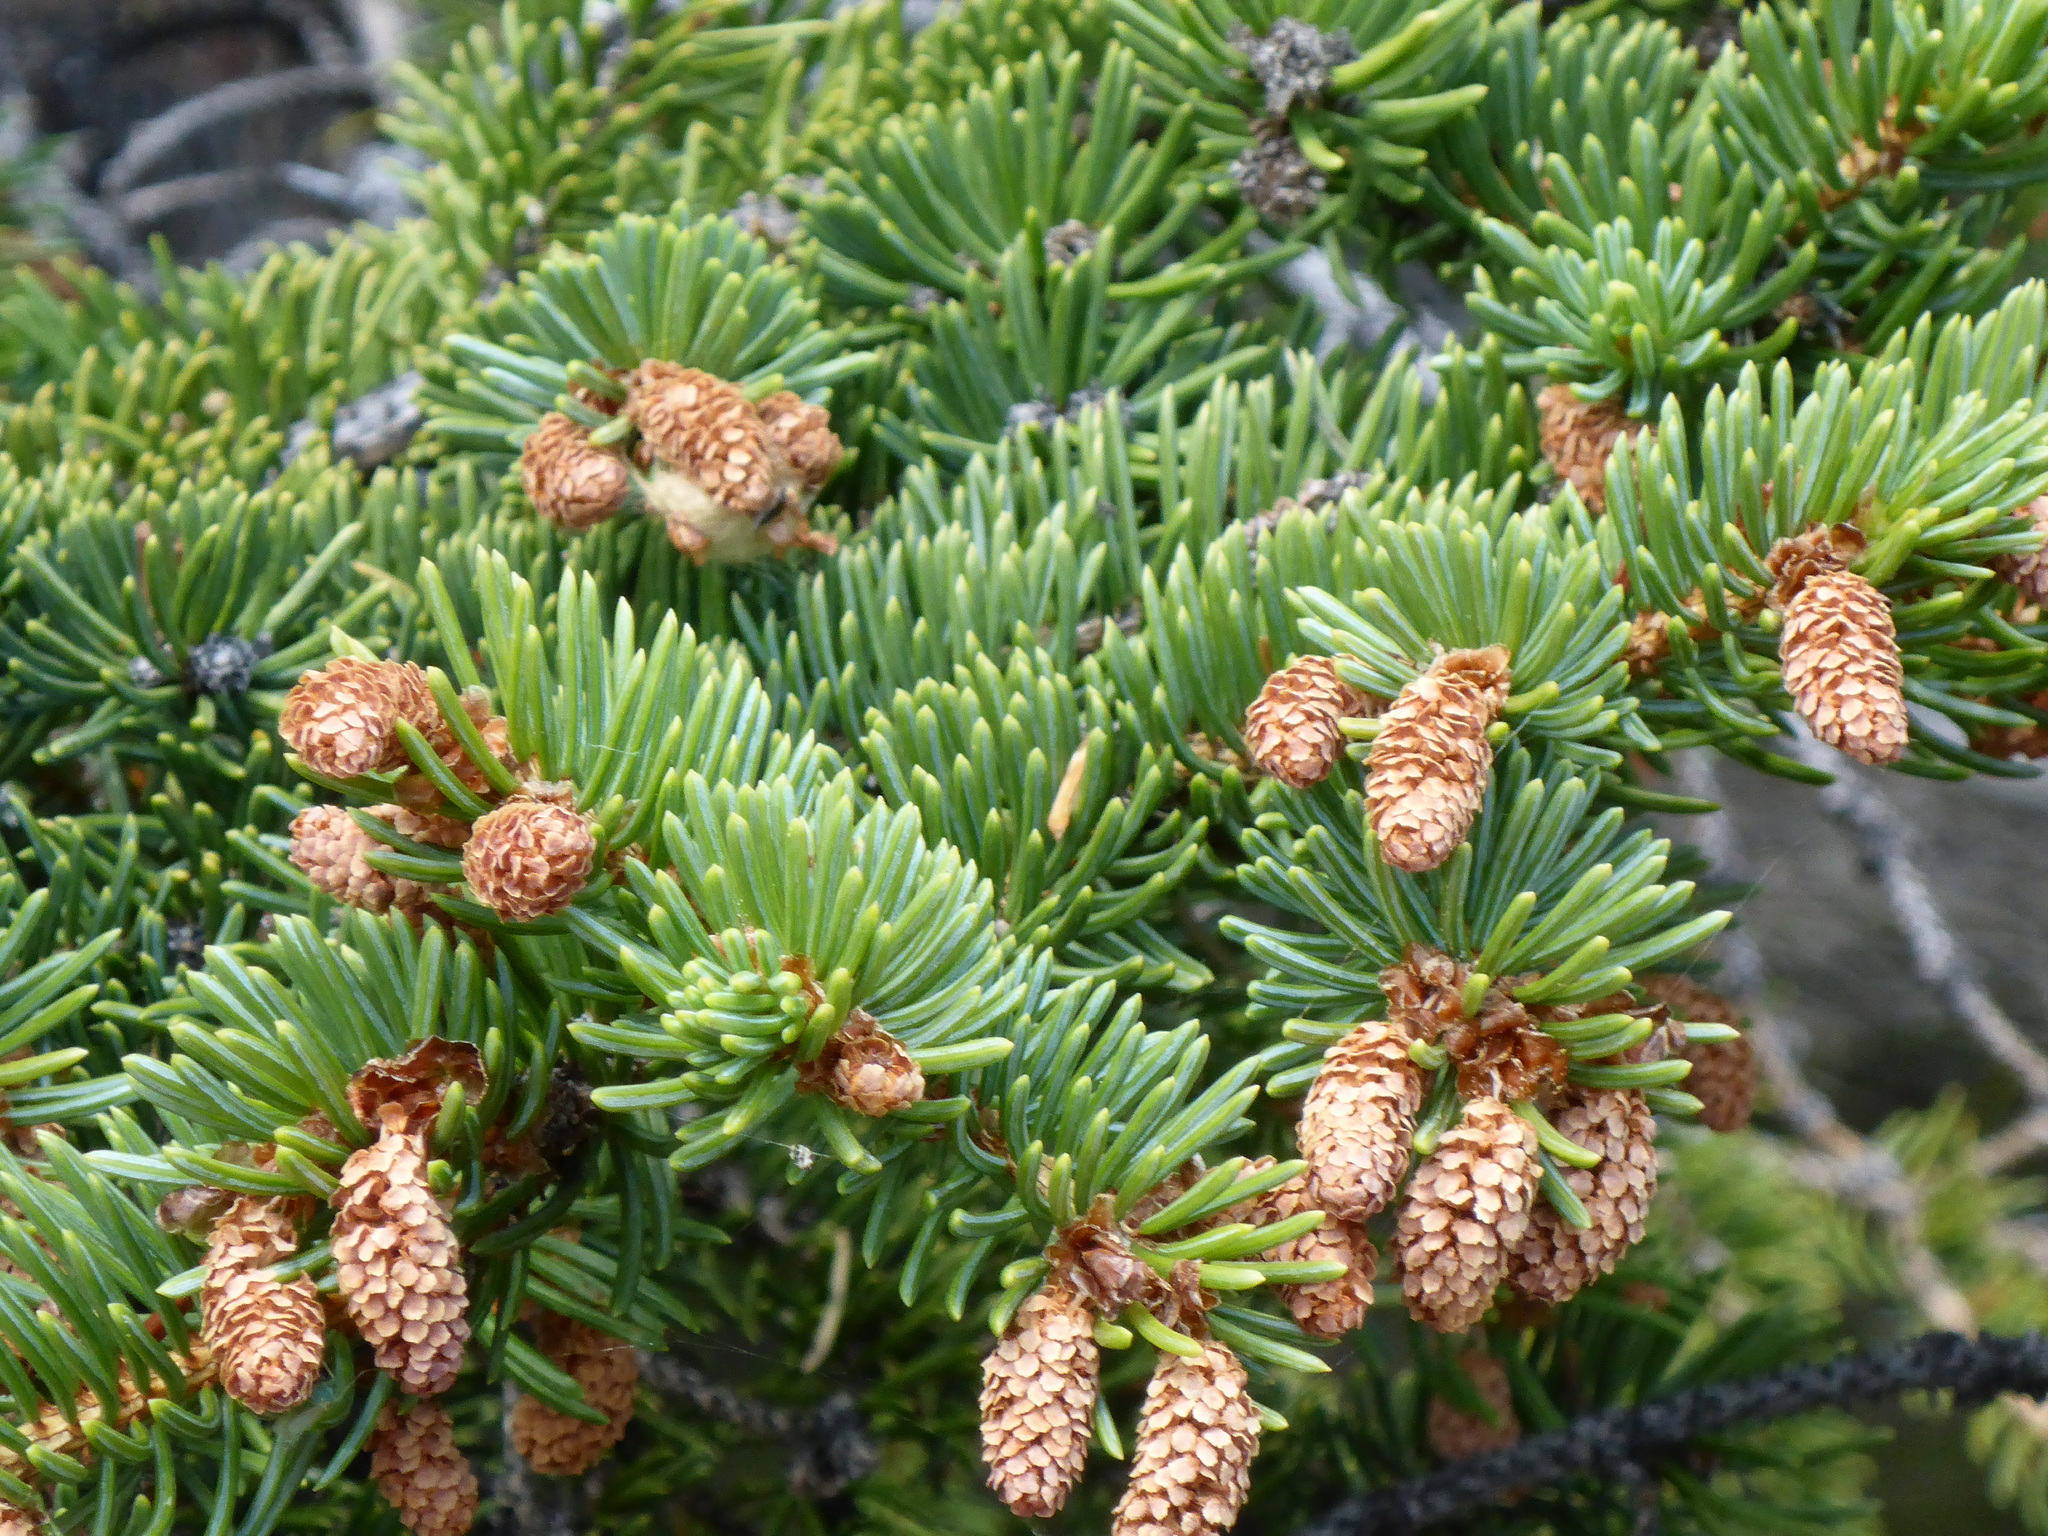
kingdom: Plantae
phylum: Tracheophyta
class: Pinopsida
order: Pinales
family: Pinaceae
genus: Picea
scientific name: Picea glauca
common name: White spruce
